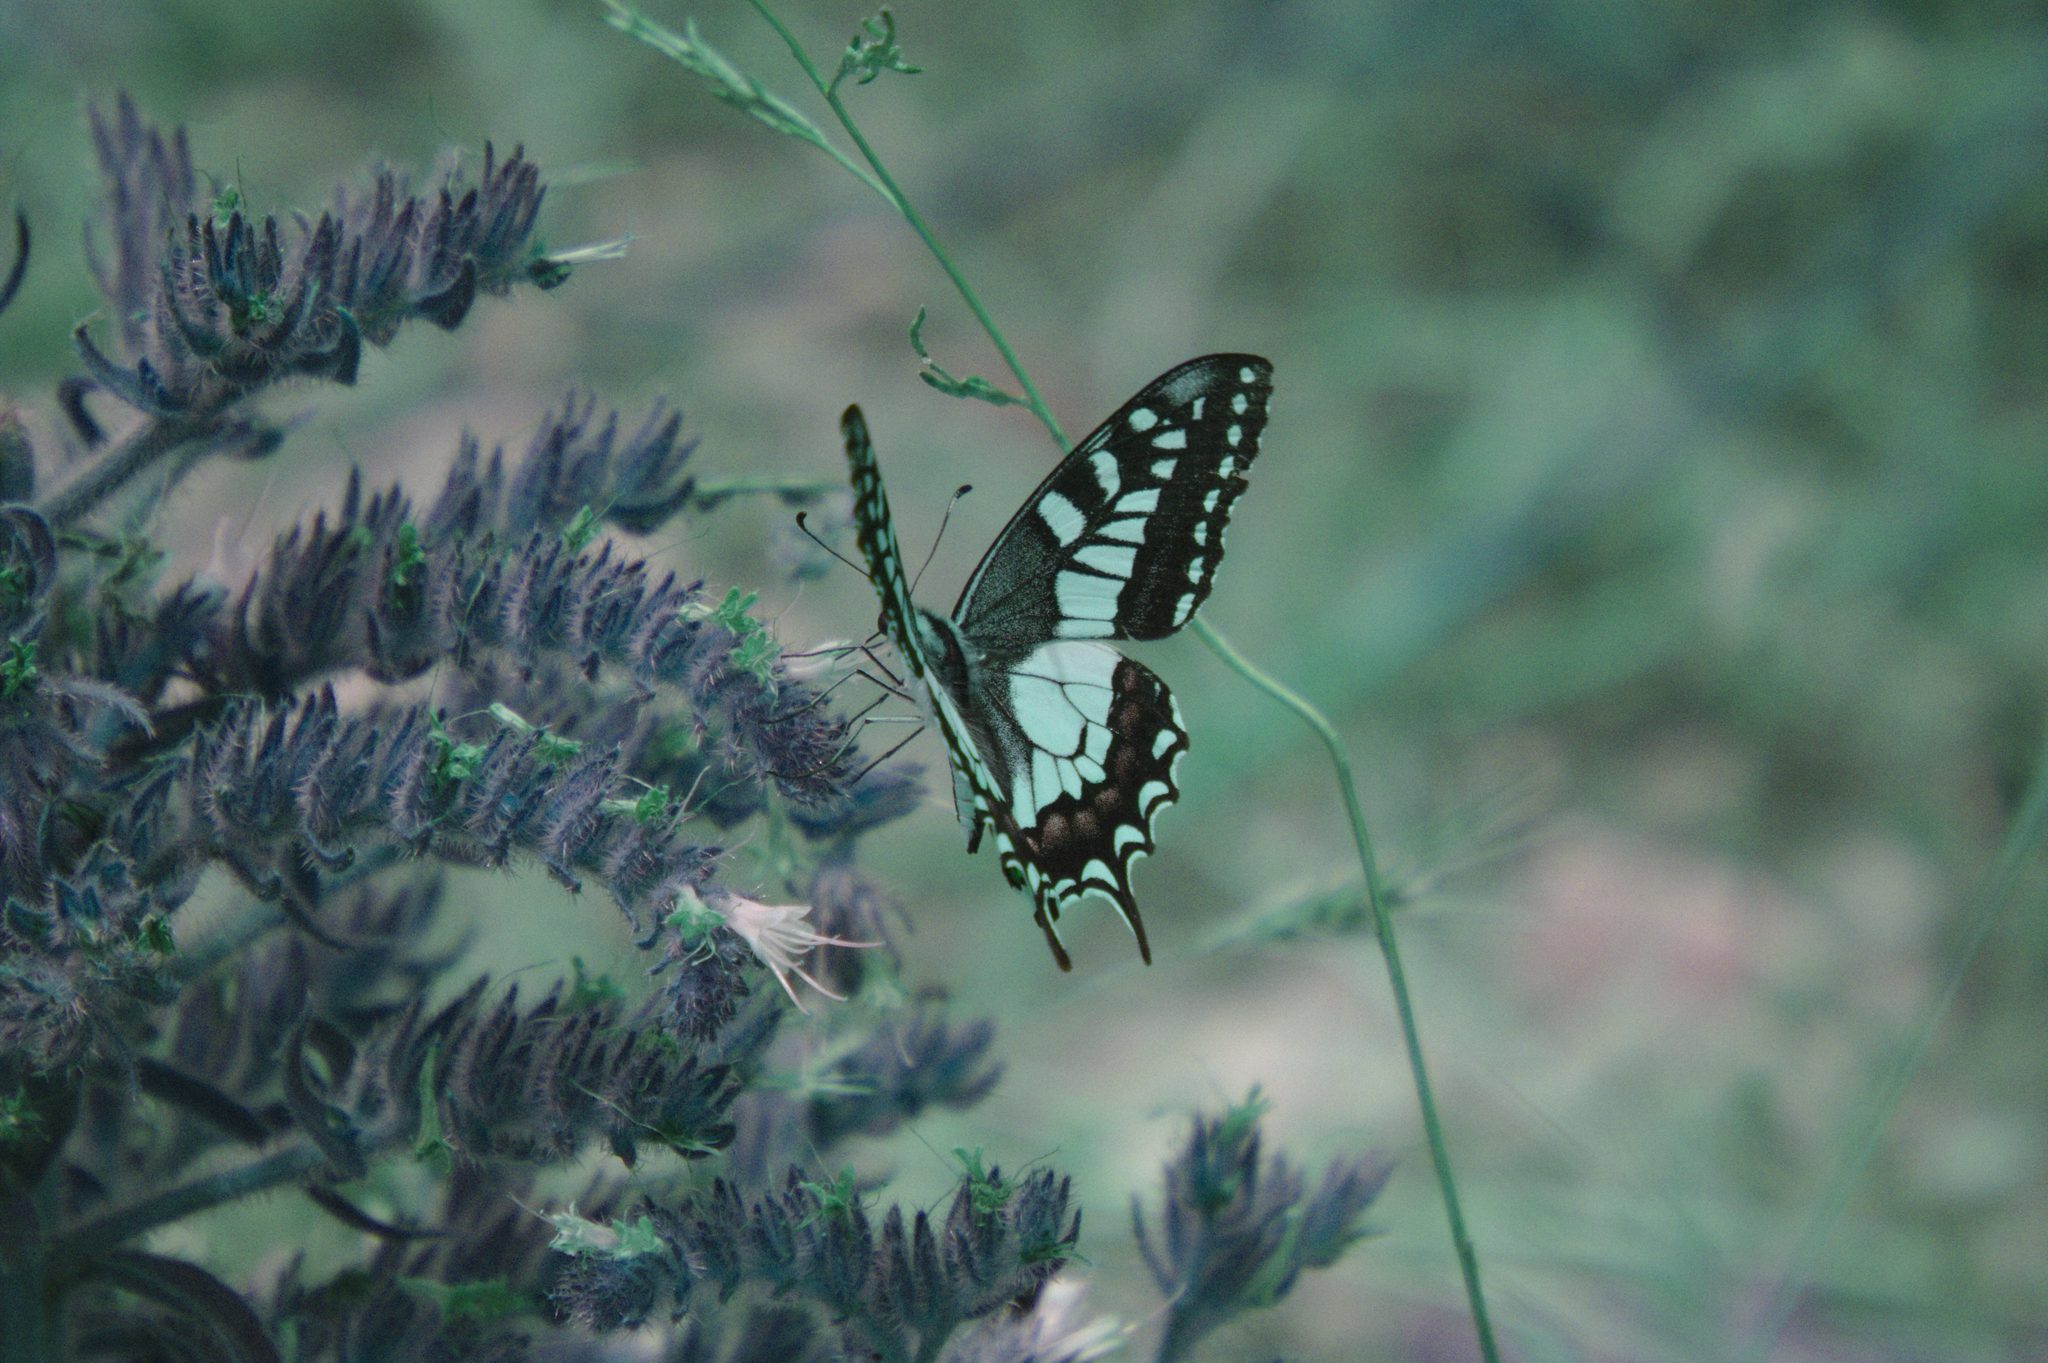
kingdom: Animalia
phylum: Arthropoda
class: Insecta
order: Lepidoptera
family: Papilionidae
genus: Papilio
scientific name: Papilio machaon
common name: Swallowtail
